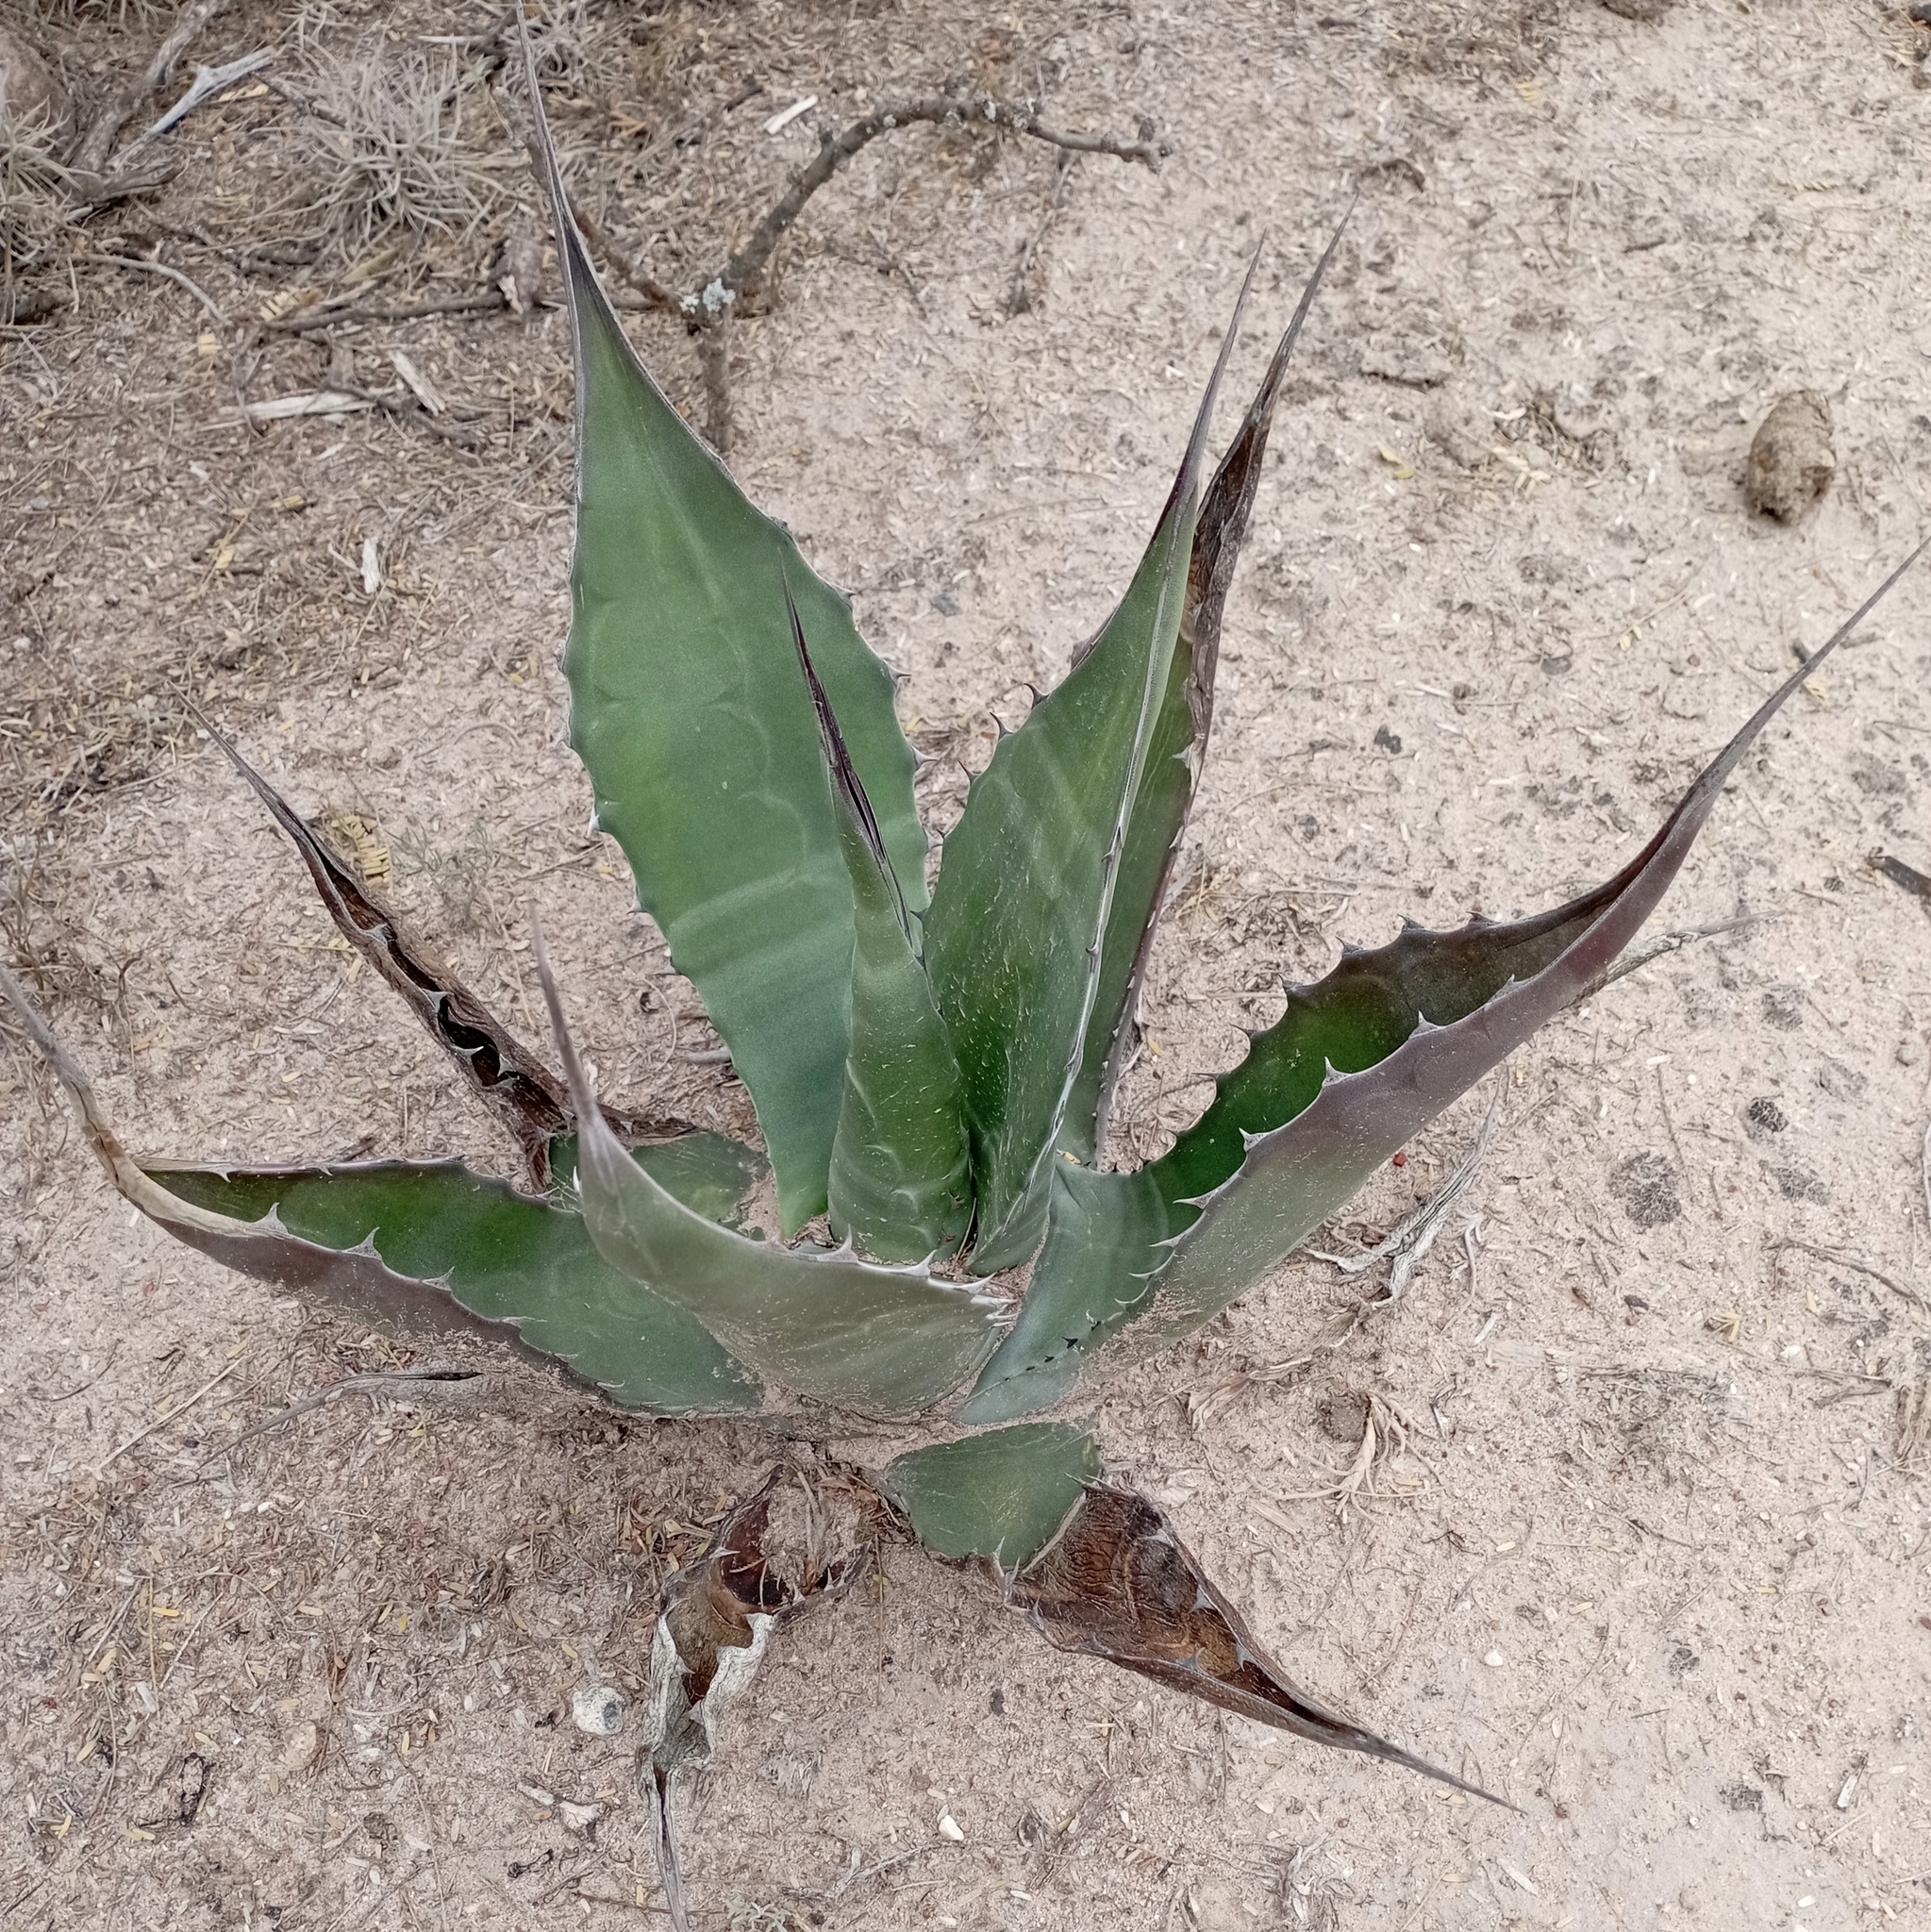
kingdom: Plantae
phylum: Tracheophyta
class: Liliopsida
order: Asparagales
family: Asparagaceae
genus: Agave
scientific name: Agave salmiana
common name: Pulque agave
